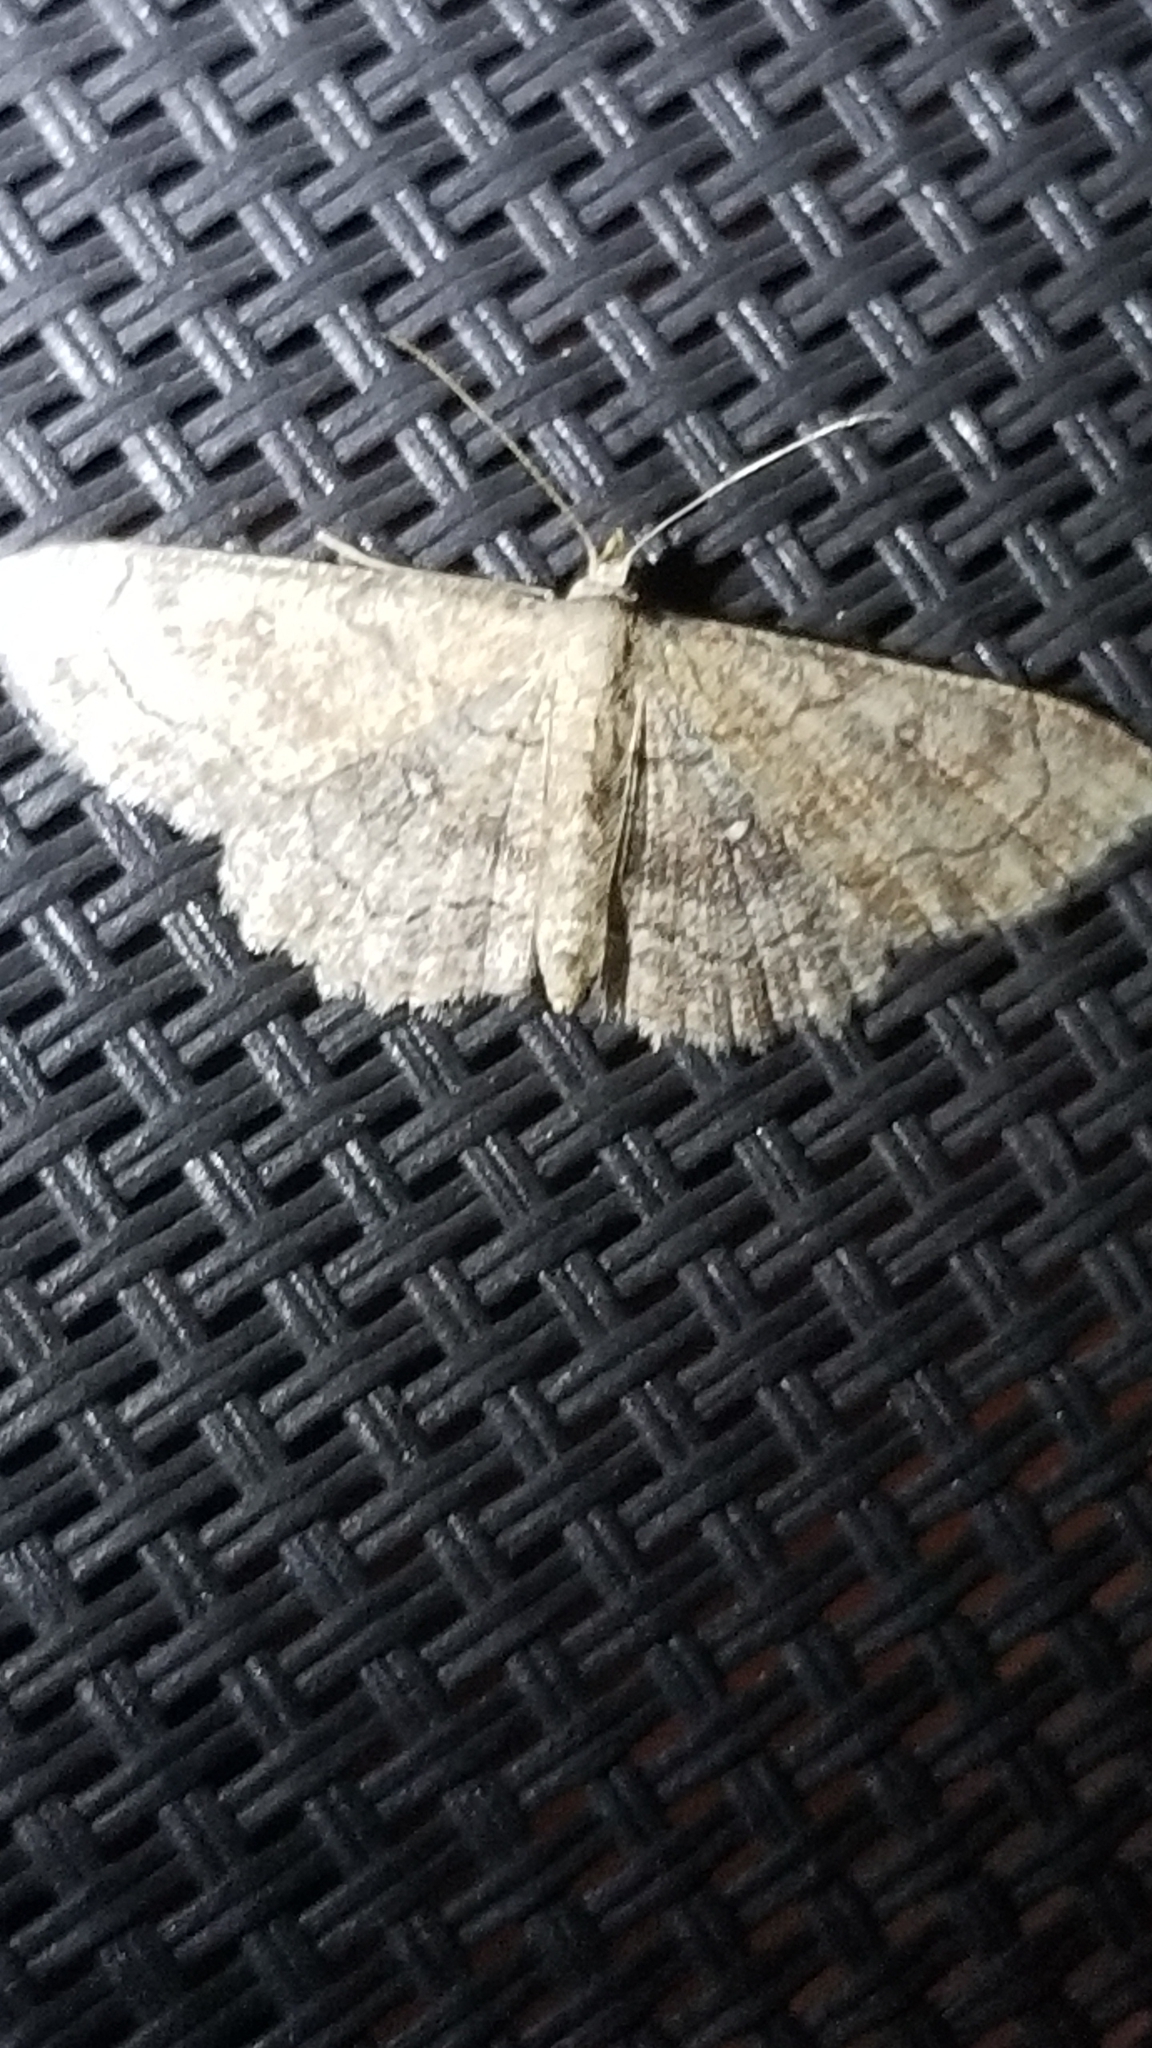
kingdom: Animalia
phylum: Arthropoda
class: Insecta
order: Lepidoptera
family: Geometridae
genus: Cyclophora
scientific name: Cyclophora nanaria
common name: Cankerworm
